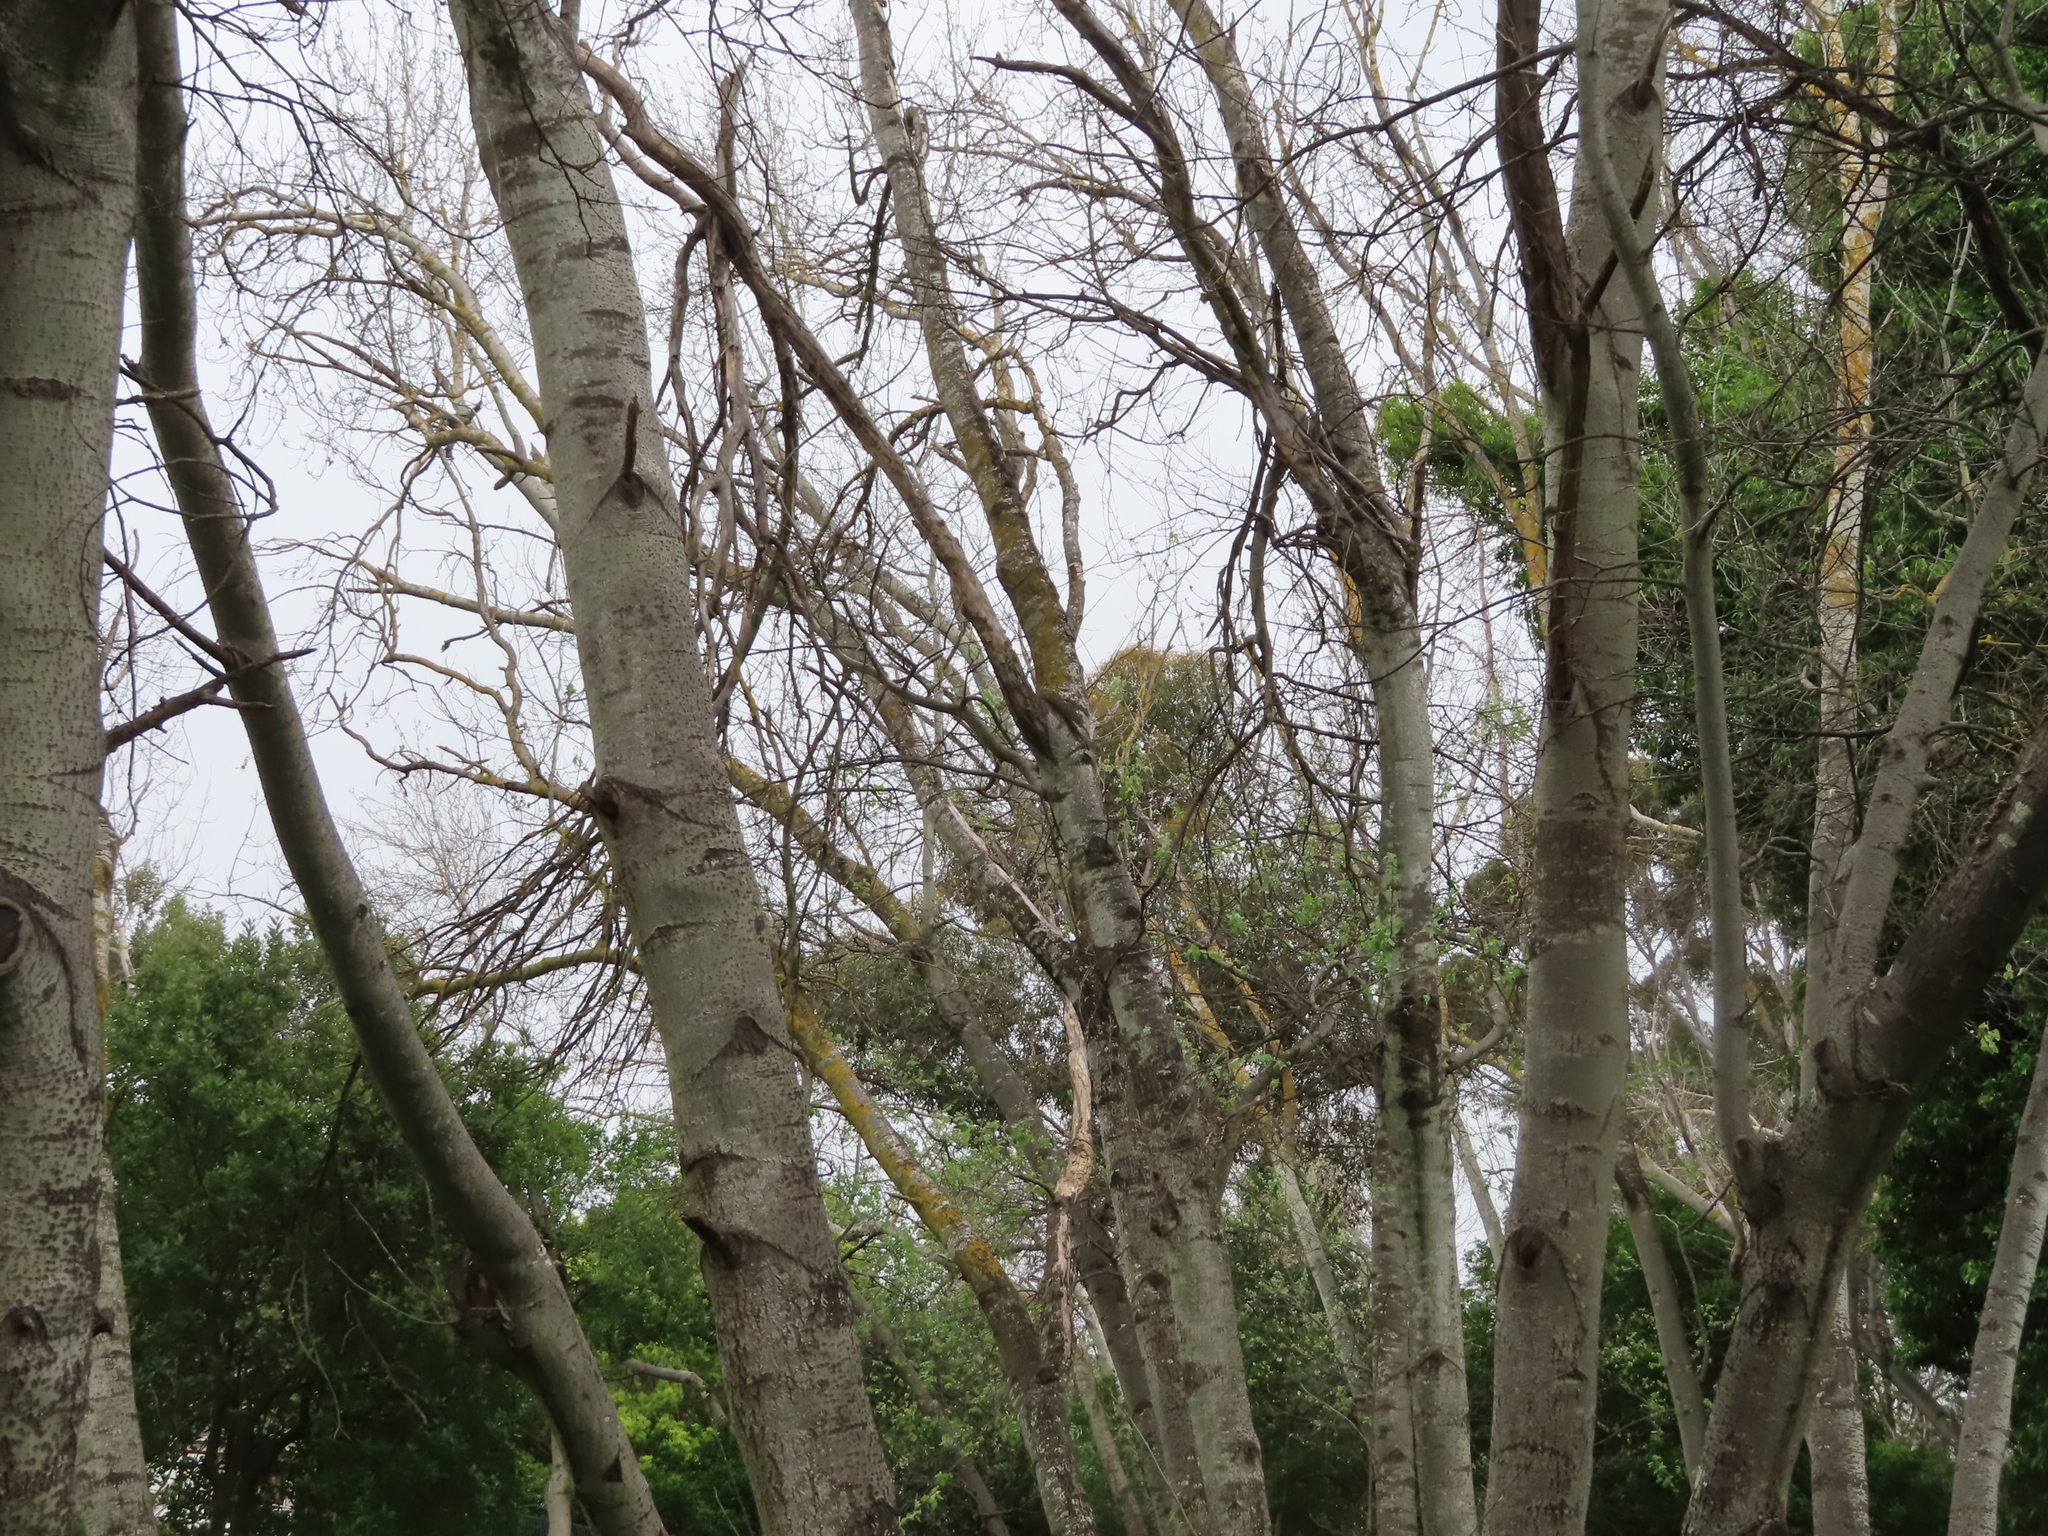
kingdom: Plantae
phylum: Tracheophyta
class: Magnoliopsida
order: Malpighiales
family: Salicaceae
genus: Populus
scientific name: Populus canescens
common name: Gray poplar
